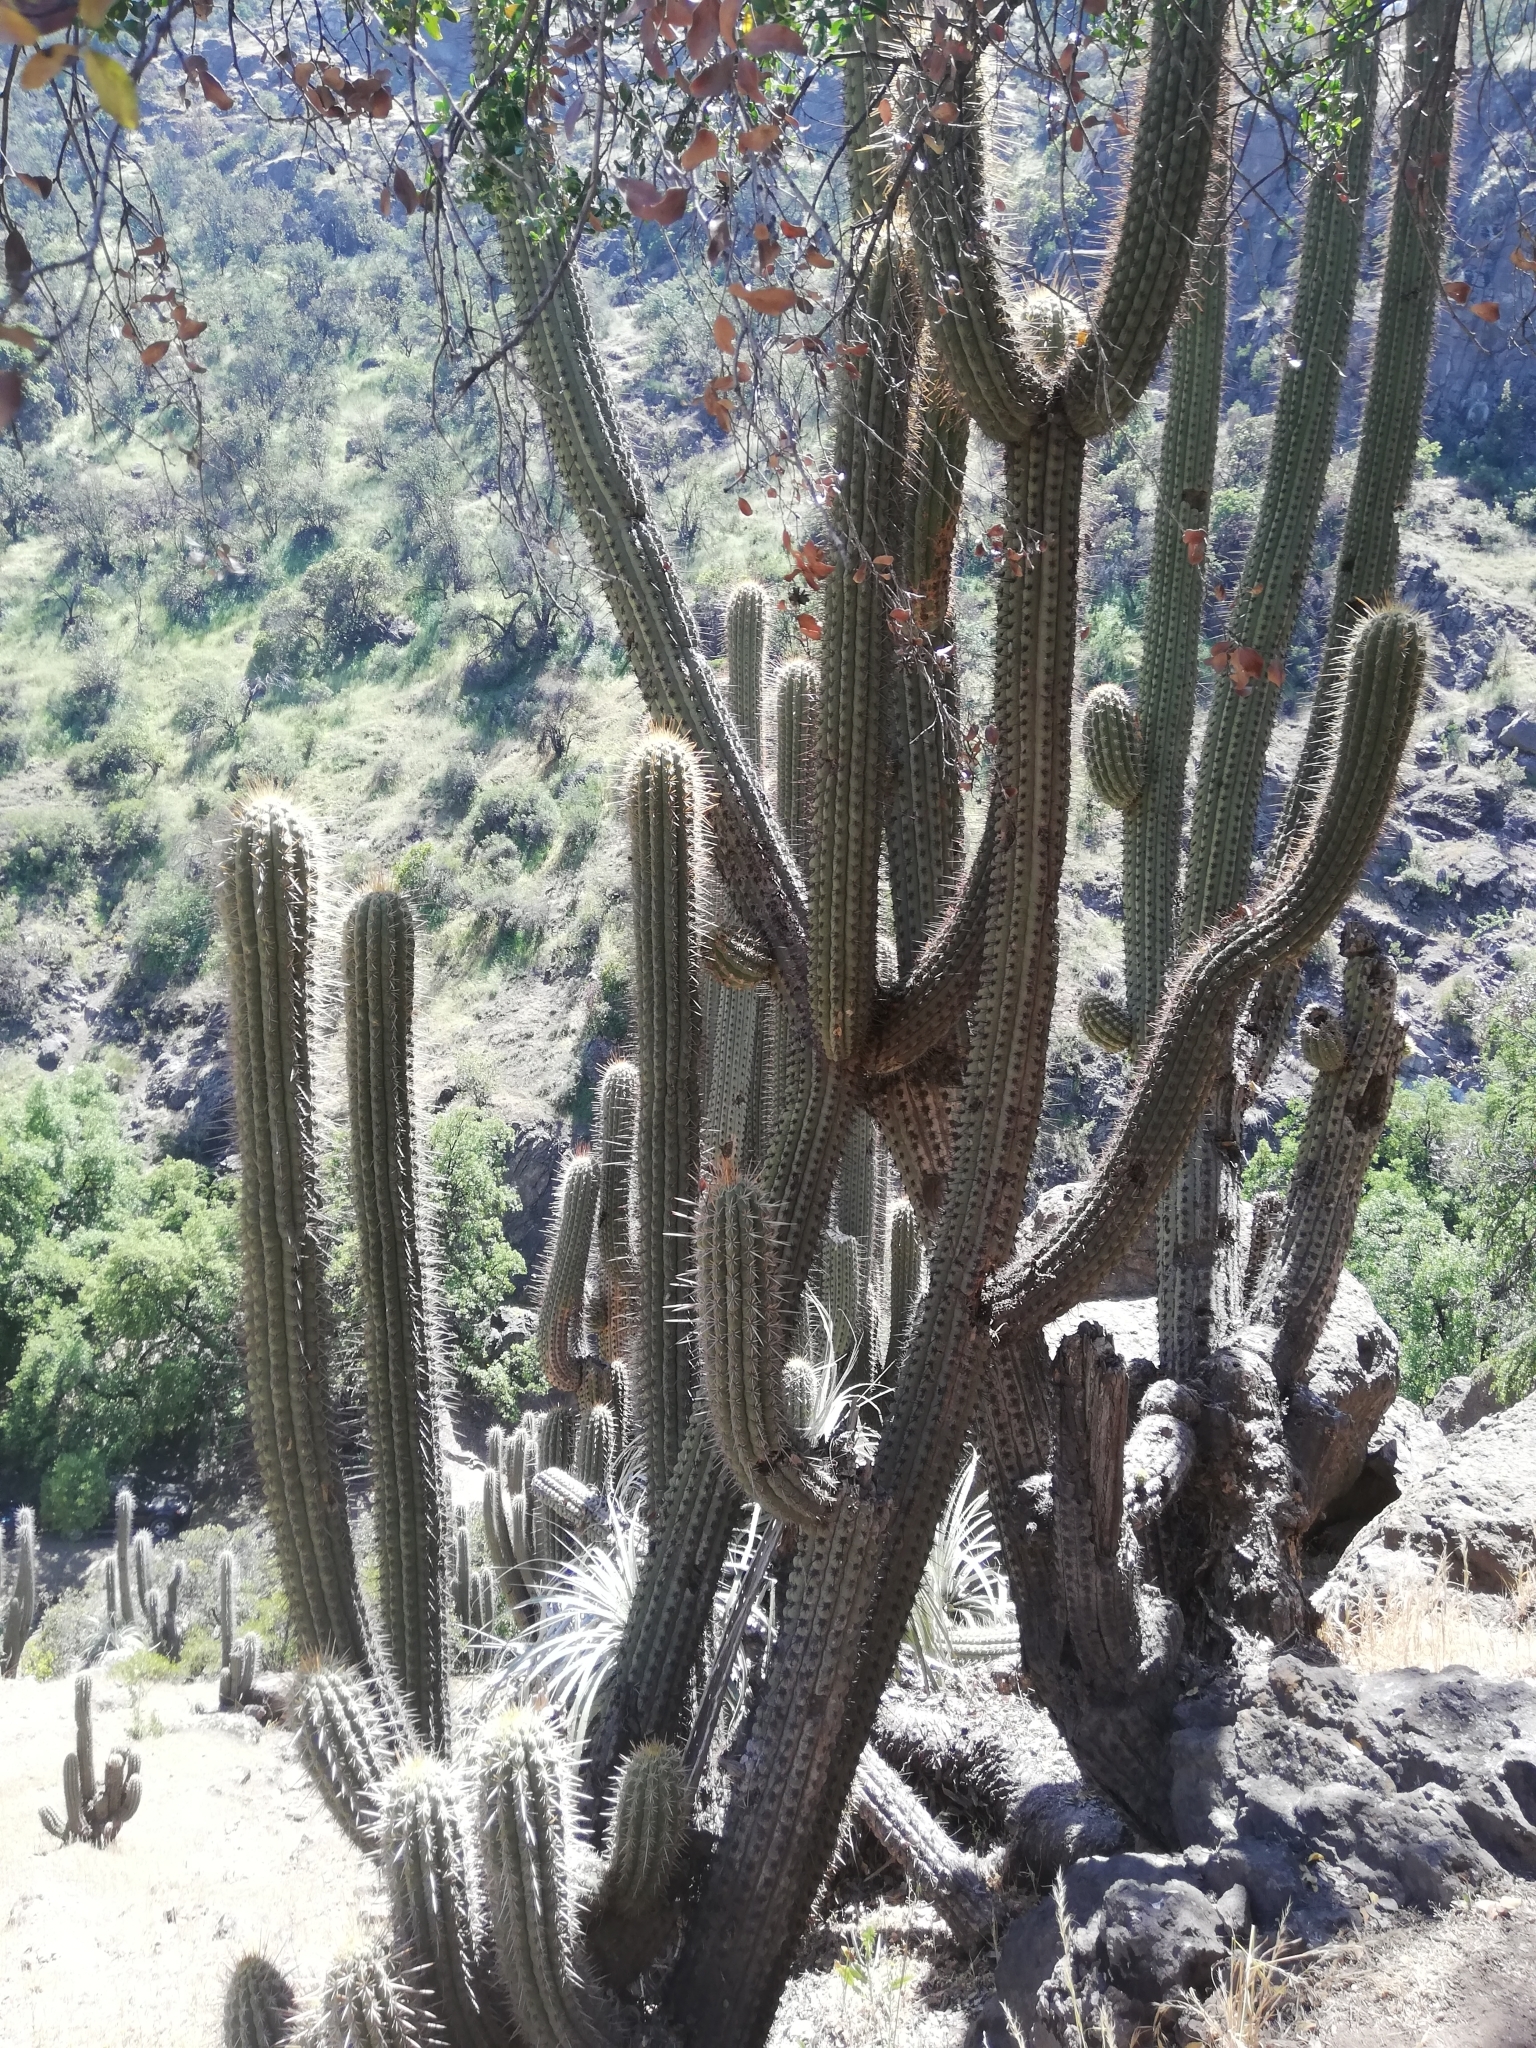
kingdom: Plantae
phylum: Tracheophyta
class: Magnoliopsida
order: Caryophyllales
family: Cactaceae
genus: Leucostele
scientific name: Leucostele chiloensis
